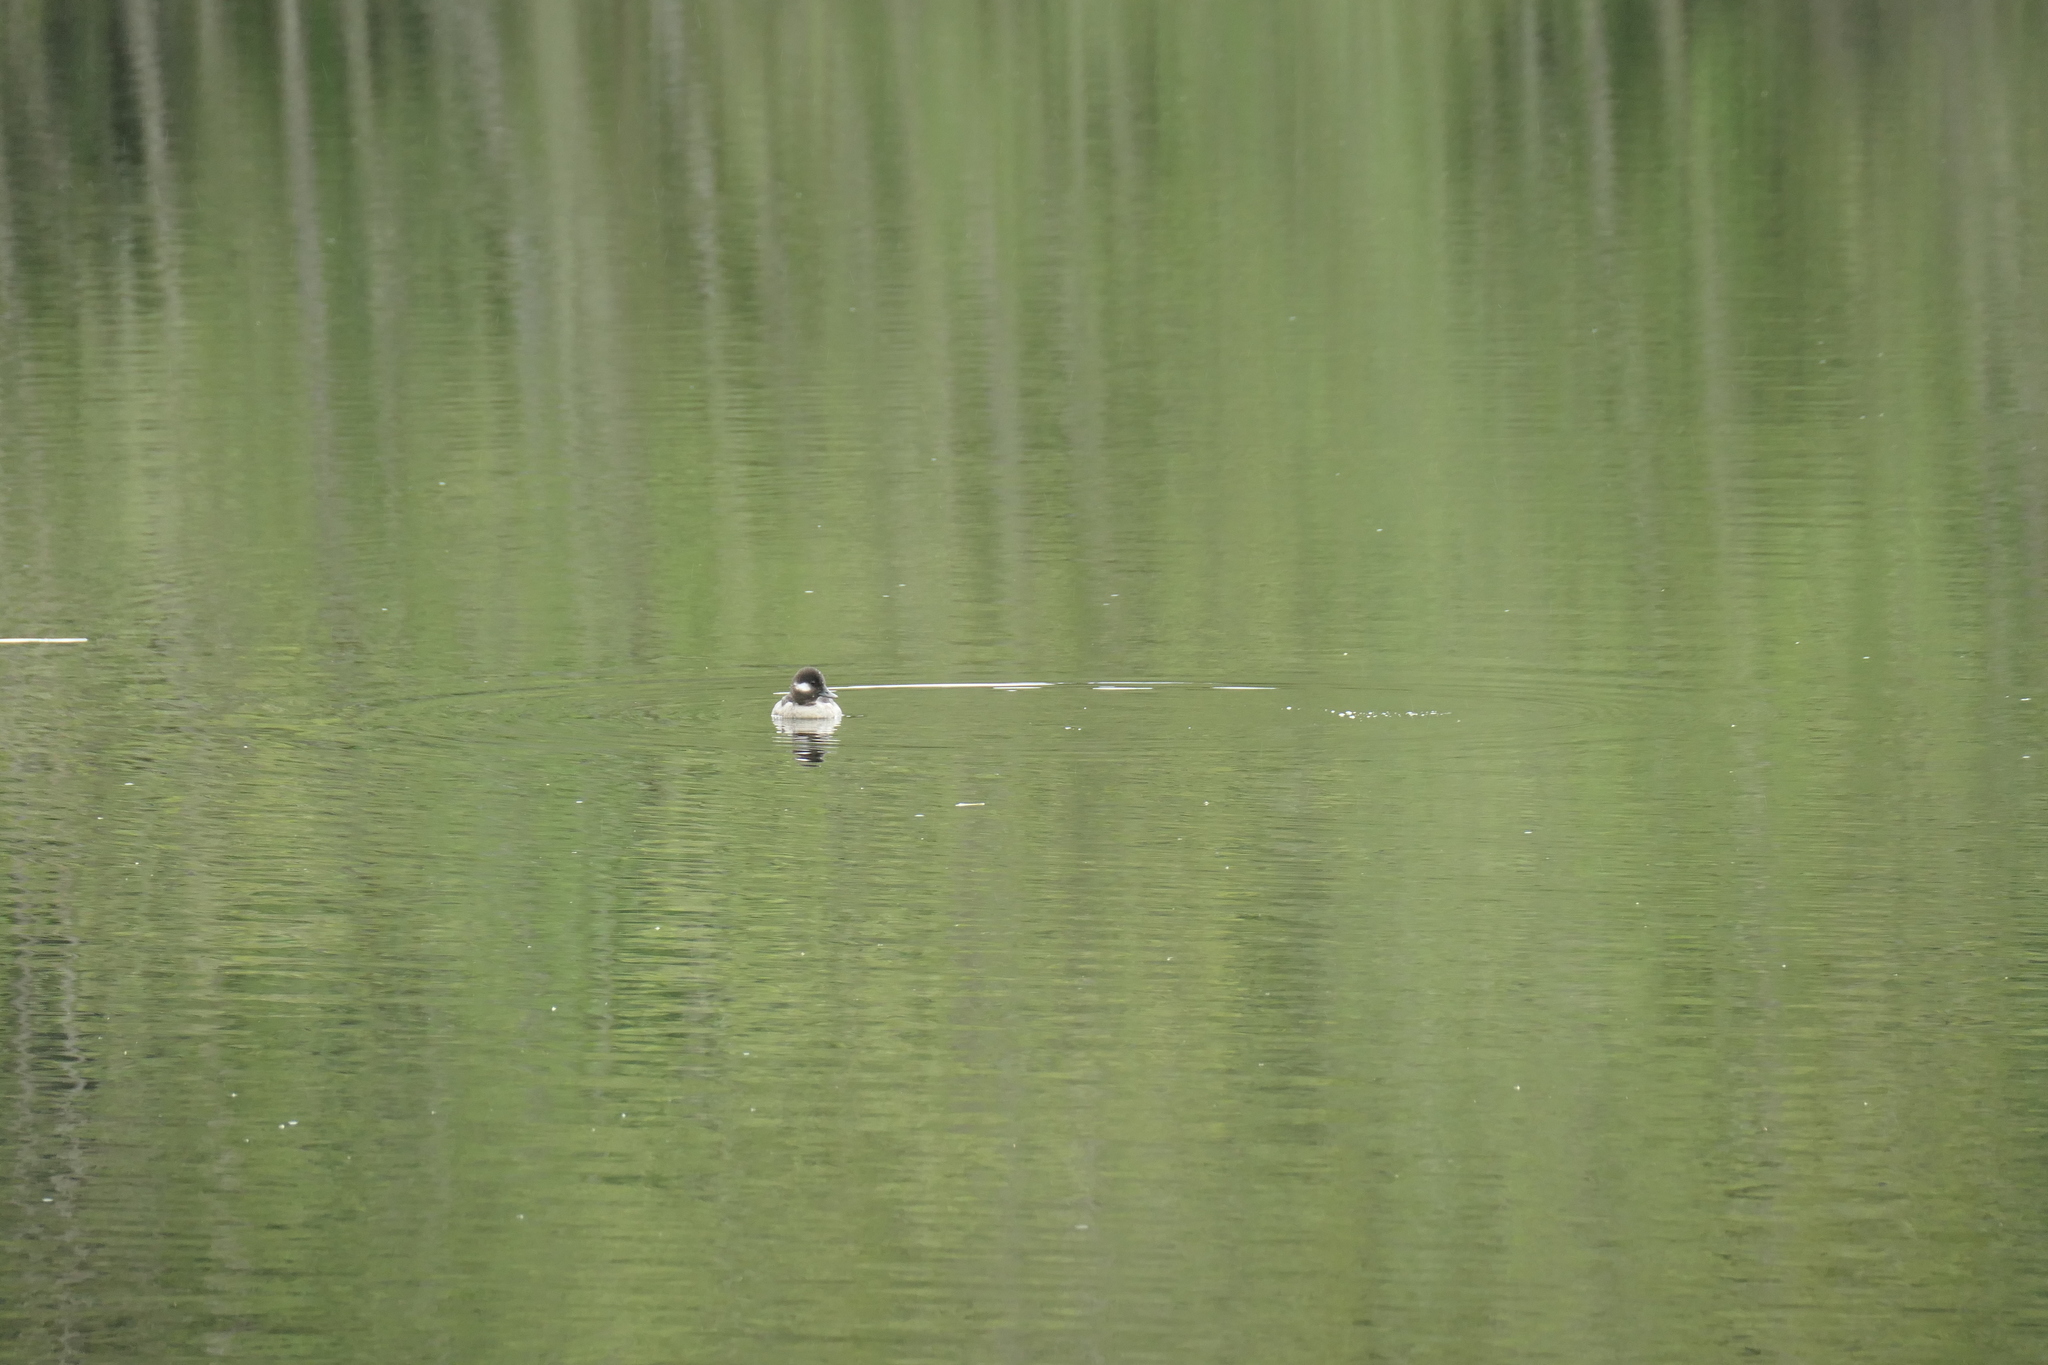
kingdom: Animalia
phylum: Chordata
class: Aves
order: Anseriformes
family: Anatidae
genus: Bucephala
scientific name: Bucephala albeola
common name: Bufflehead
